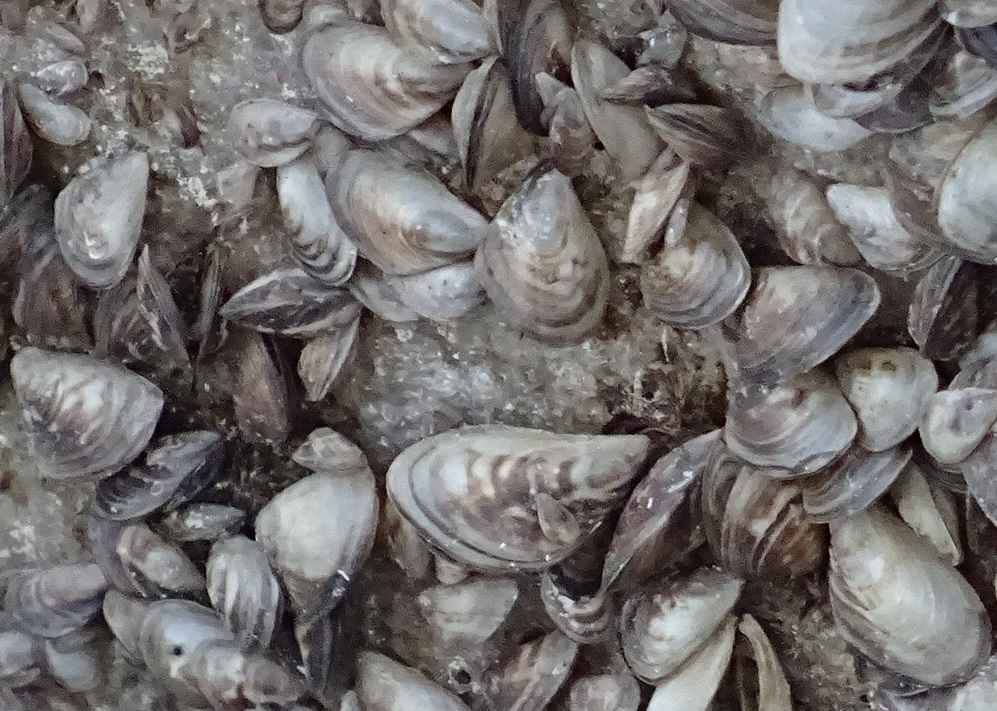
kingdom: Animalia
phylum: Mollusca
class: Bivalvia
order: Myida
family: Dreissenidae
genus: Dreissena
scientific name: Dreissena bugensis
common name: Quagga mussel
